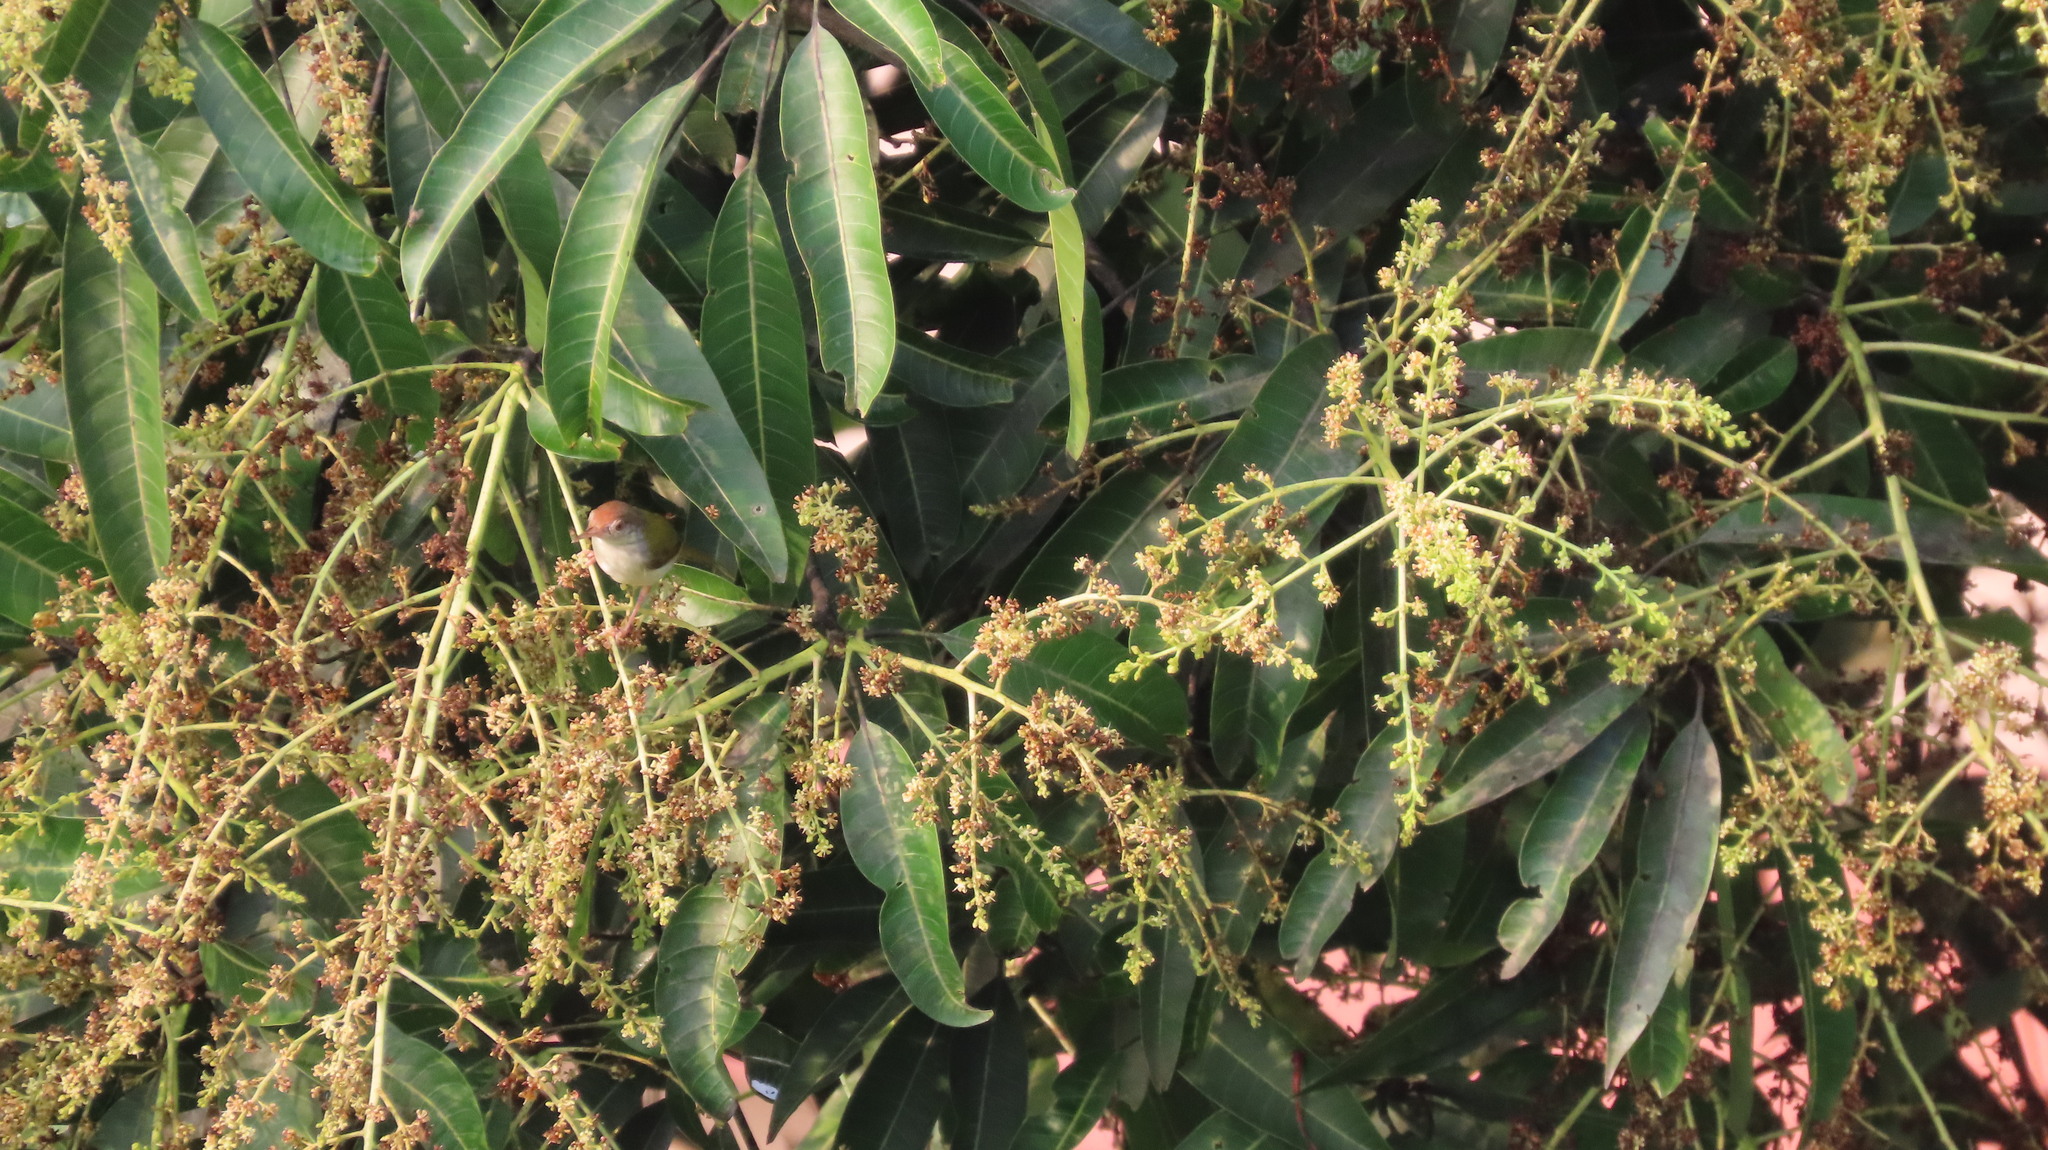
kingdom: Animalia
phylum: Chordata
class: Aves
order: Passeriformes
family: Cisticolidae
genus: Orthotomus
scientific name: Orthotomus sutorius
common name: Common tailorbird
